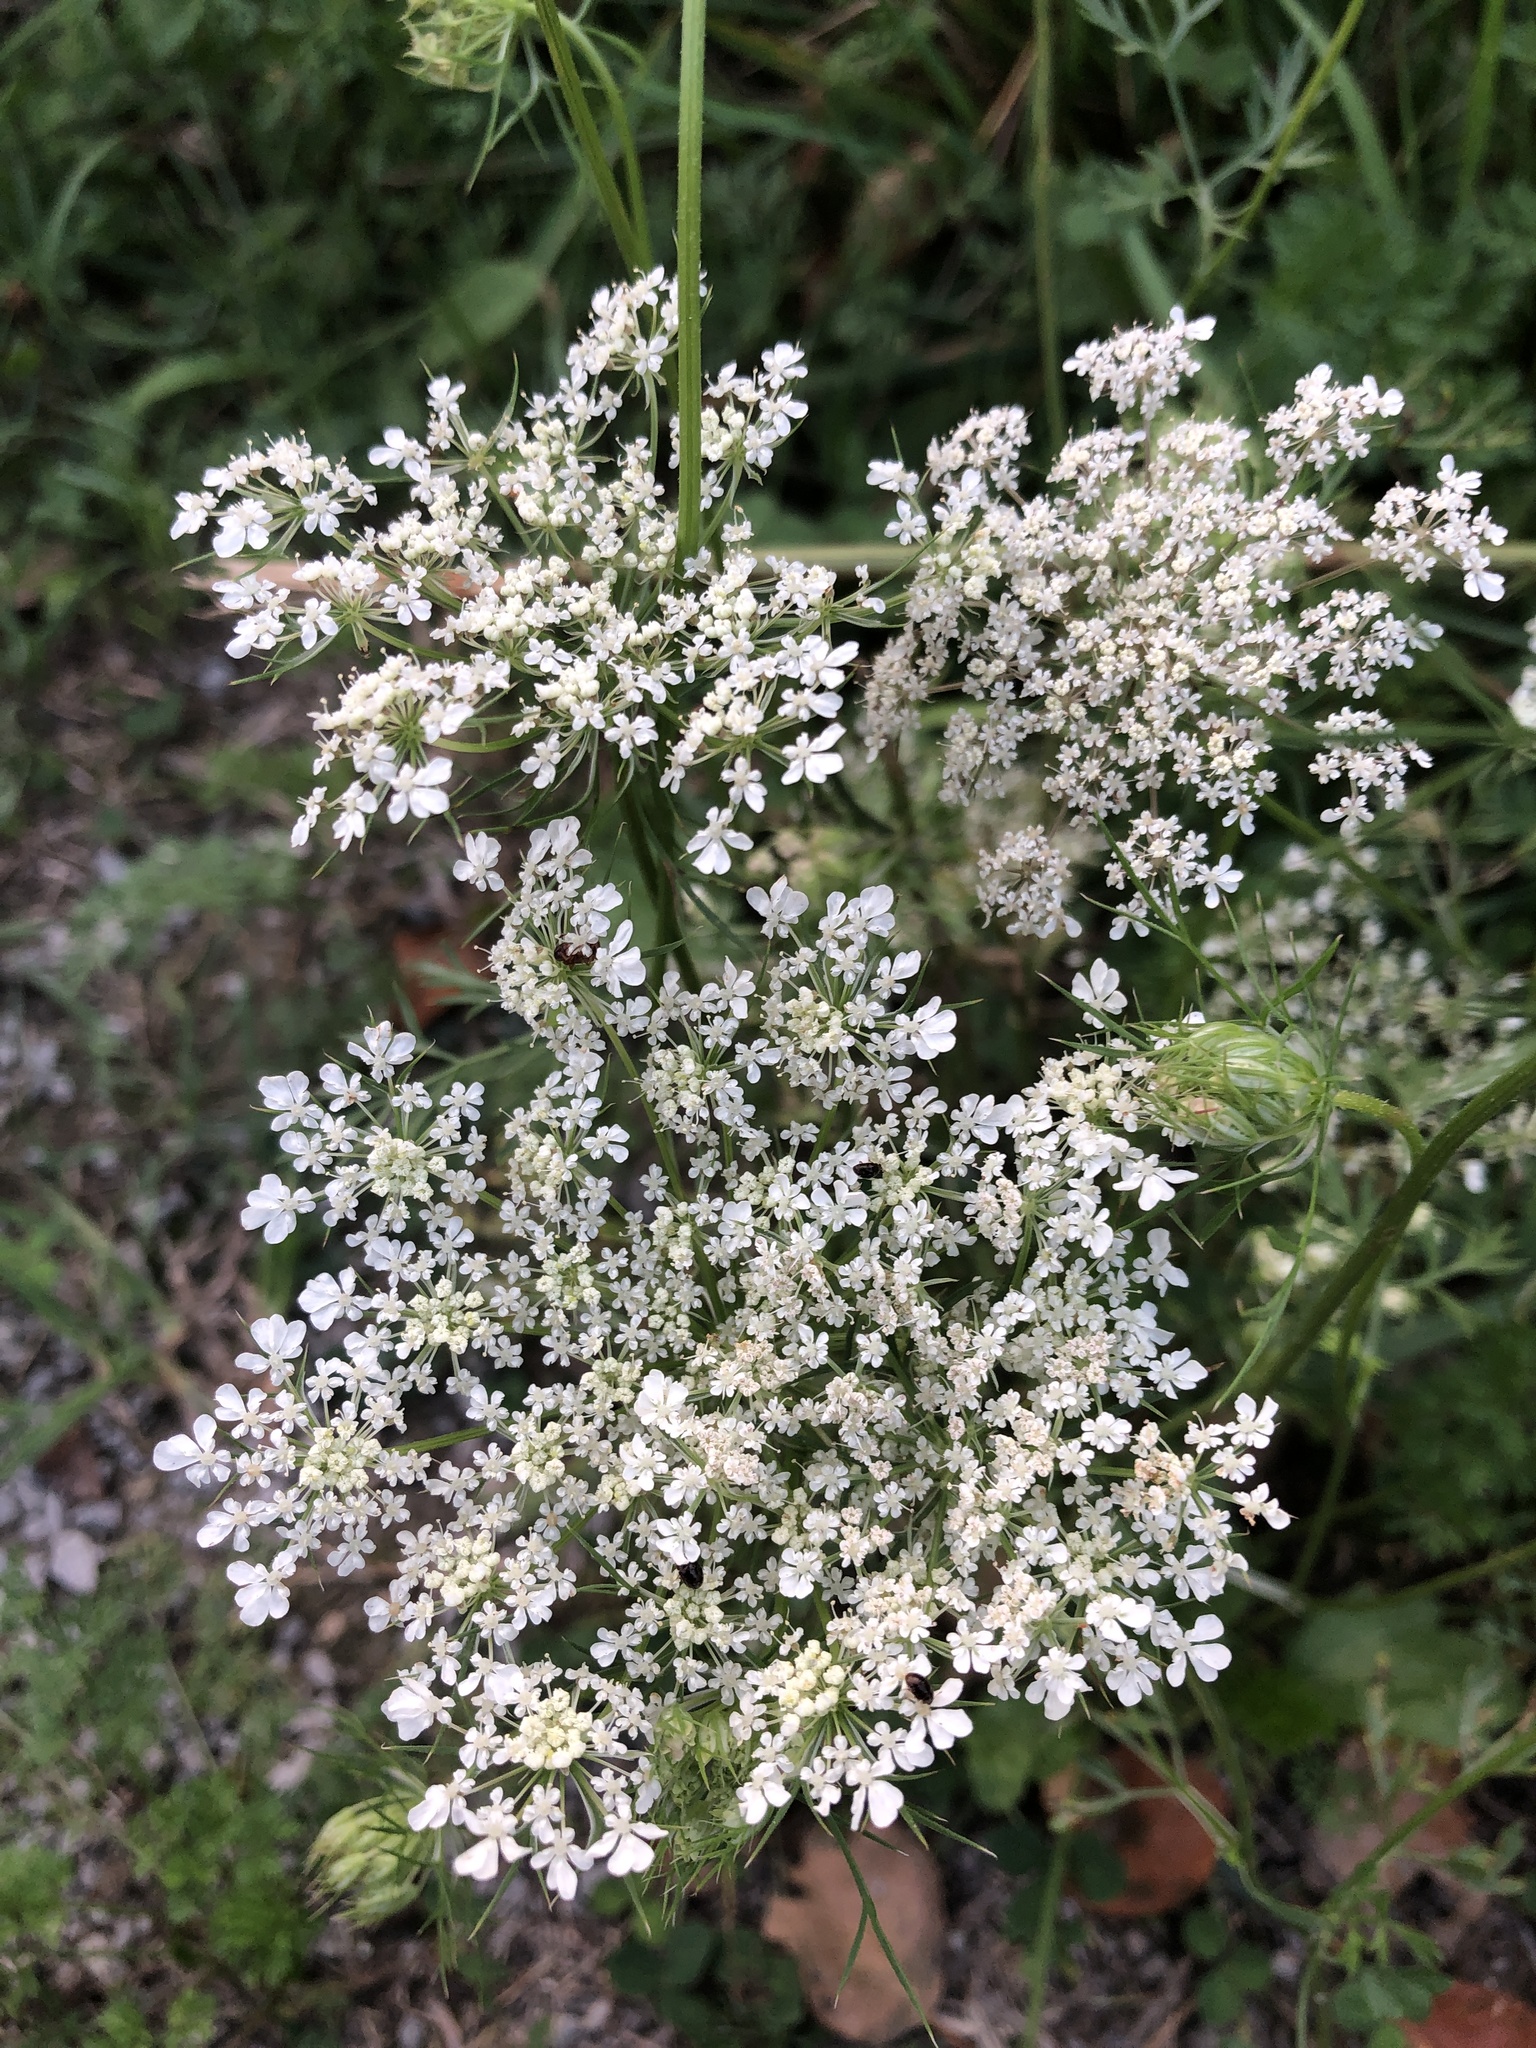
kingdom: Plantae
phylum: Tracheophyta
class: Magnoliopsida
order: Apiales
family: Apiaceae
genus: Daucus
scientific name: Daucus carota
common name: Wild carrot
